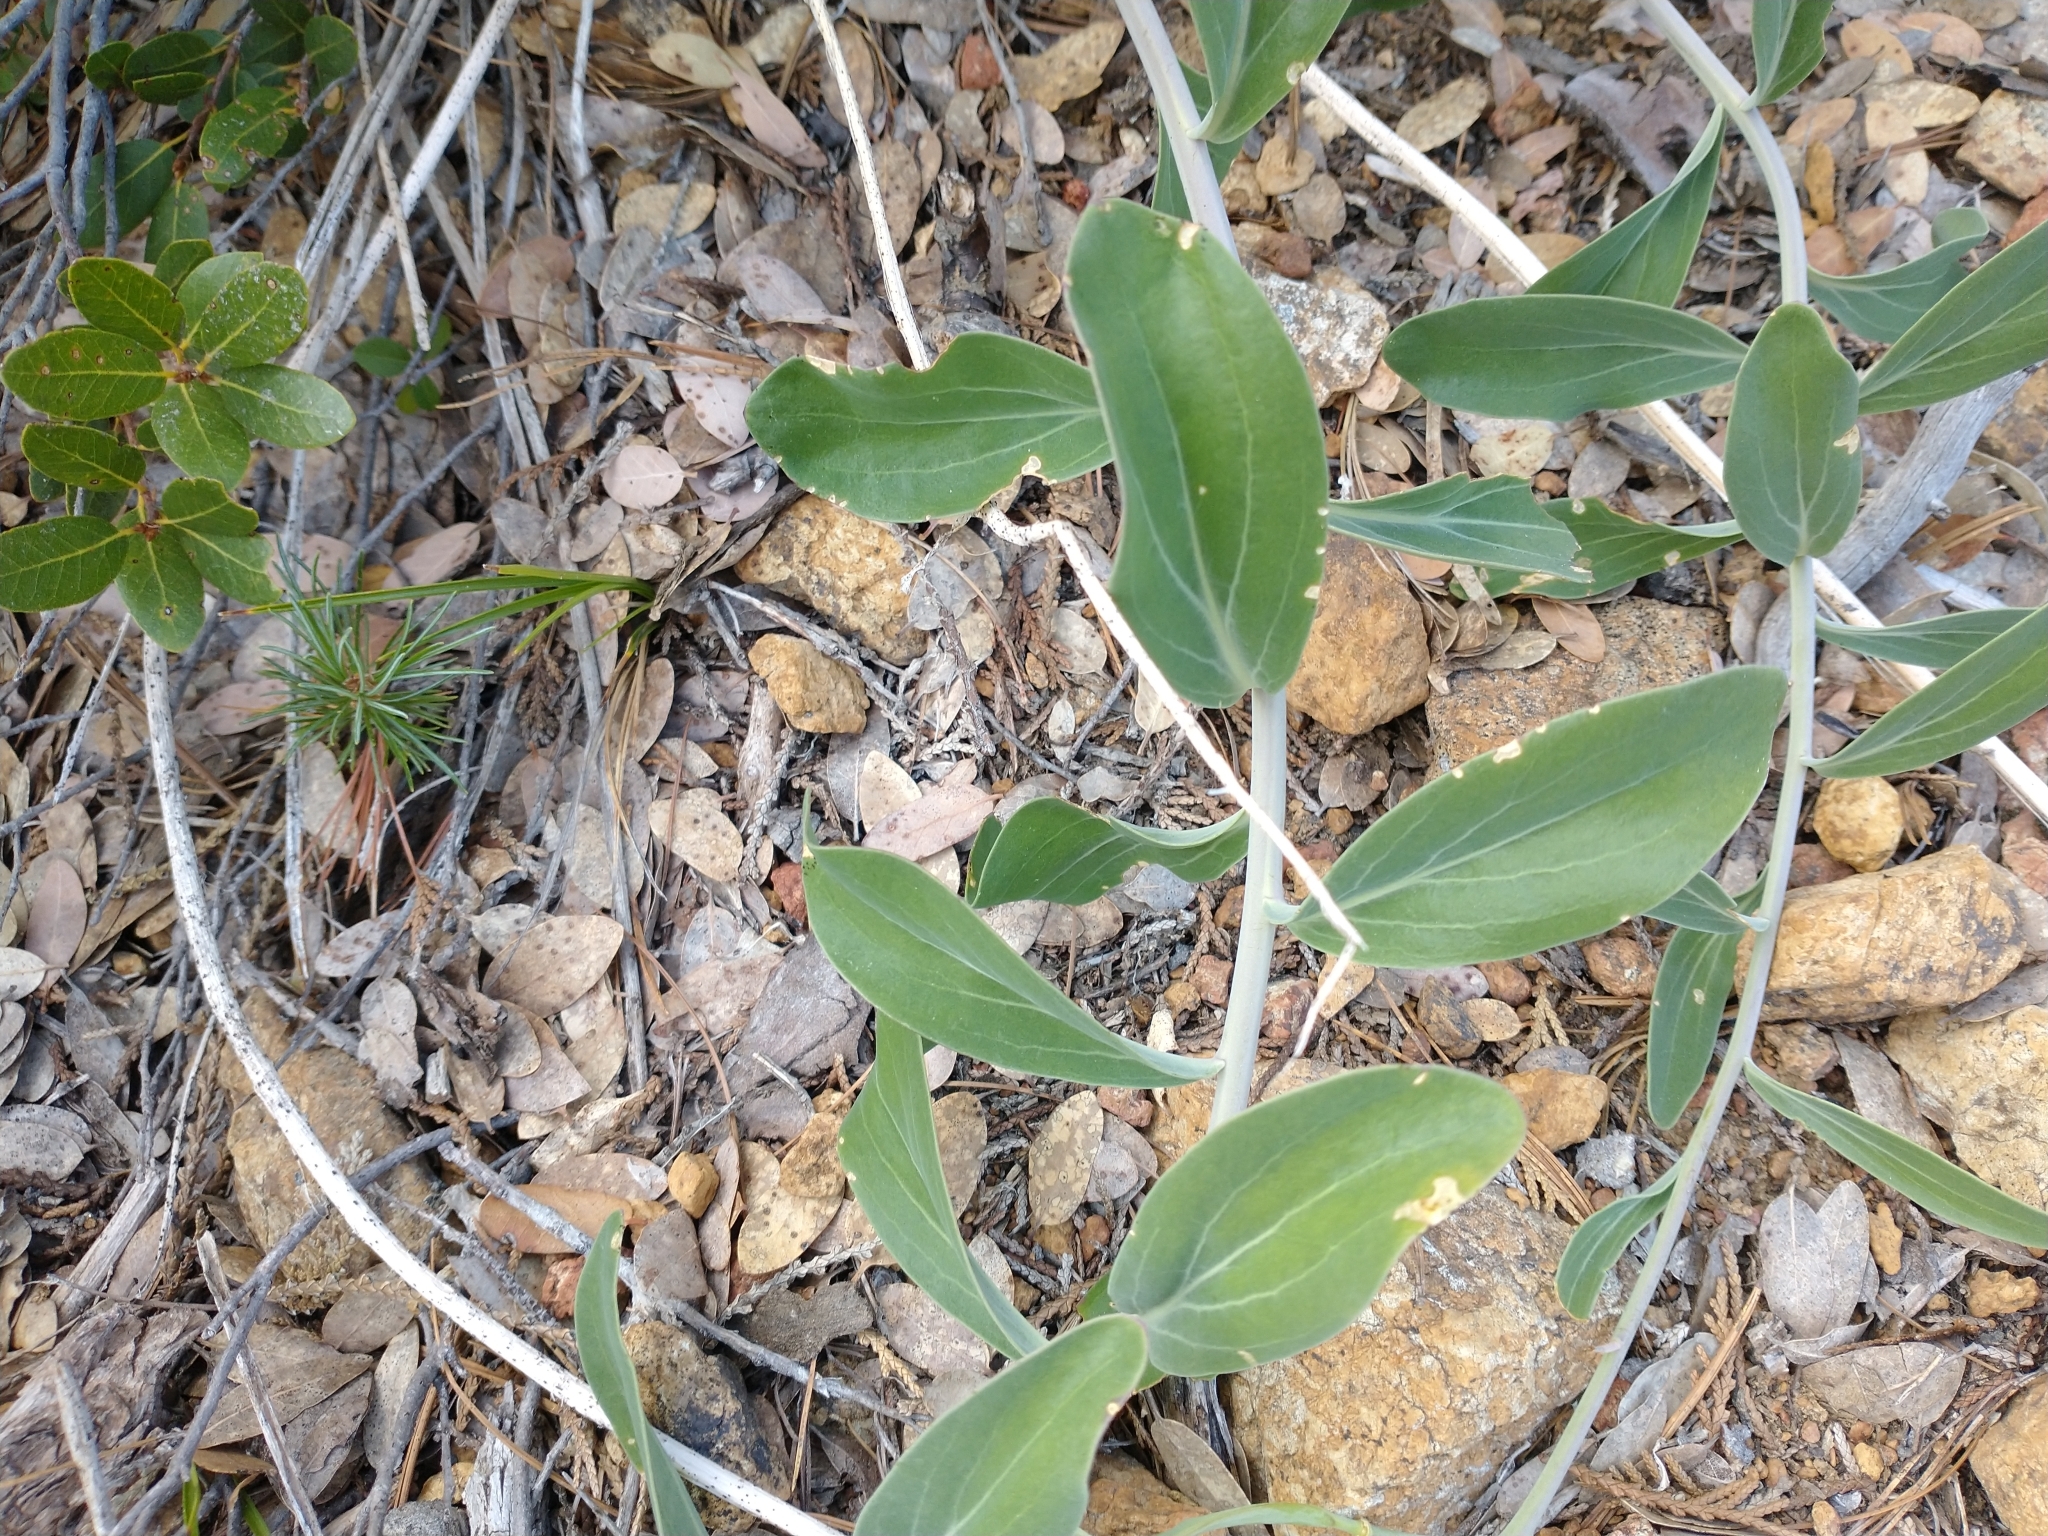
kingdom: Plantae
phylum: Tracheophyta
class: Magnoliopsida
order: Brassicales
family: Brassicaceae
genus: Streptanthus
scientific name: Streptanthus howellii
